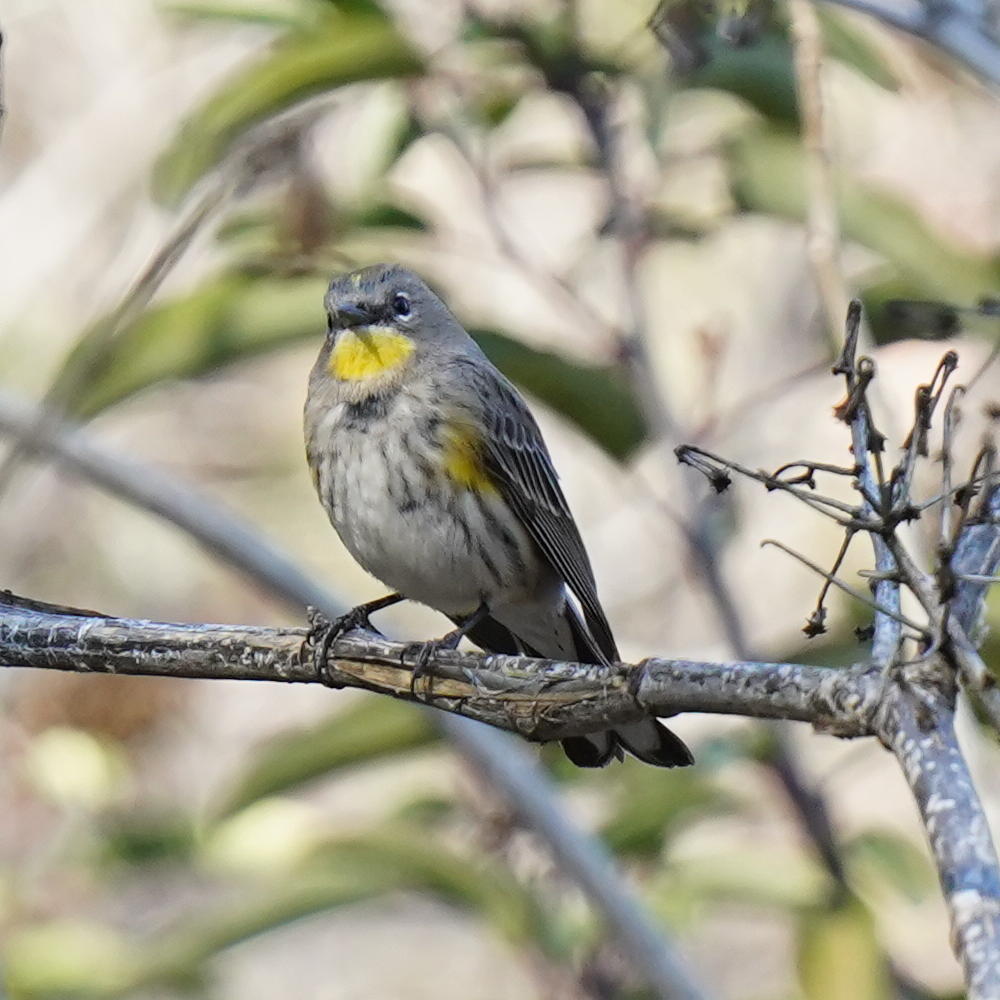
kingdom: Animalia
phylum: Chordata
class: Aves
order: Passeriformes
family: Parulidae
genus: Setophaga
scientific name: Setophaga auduboni
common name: Audubon's warbler
